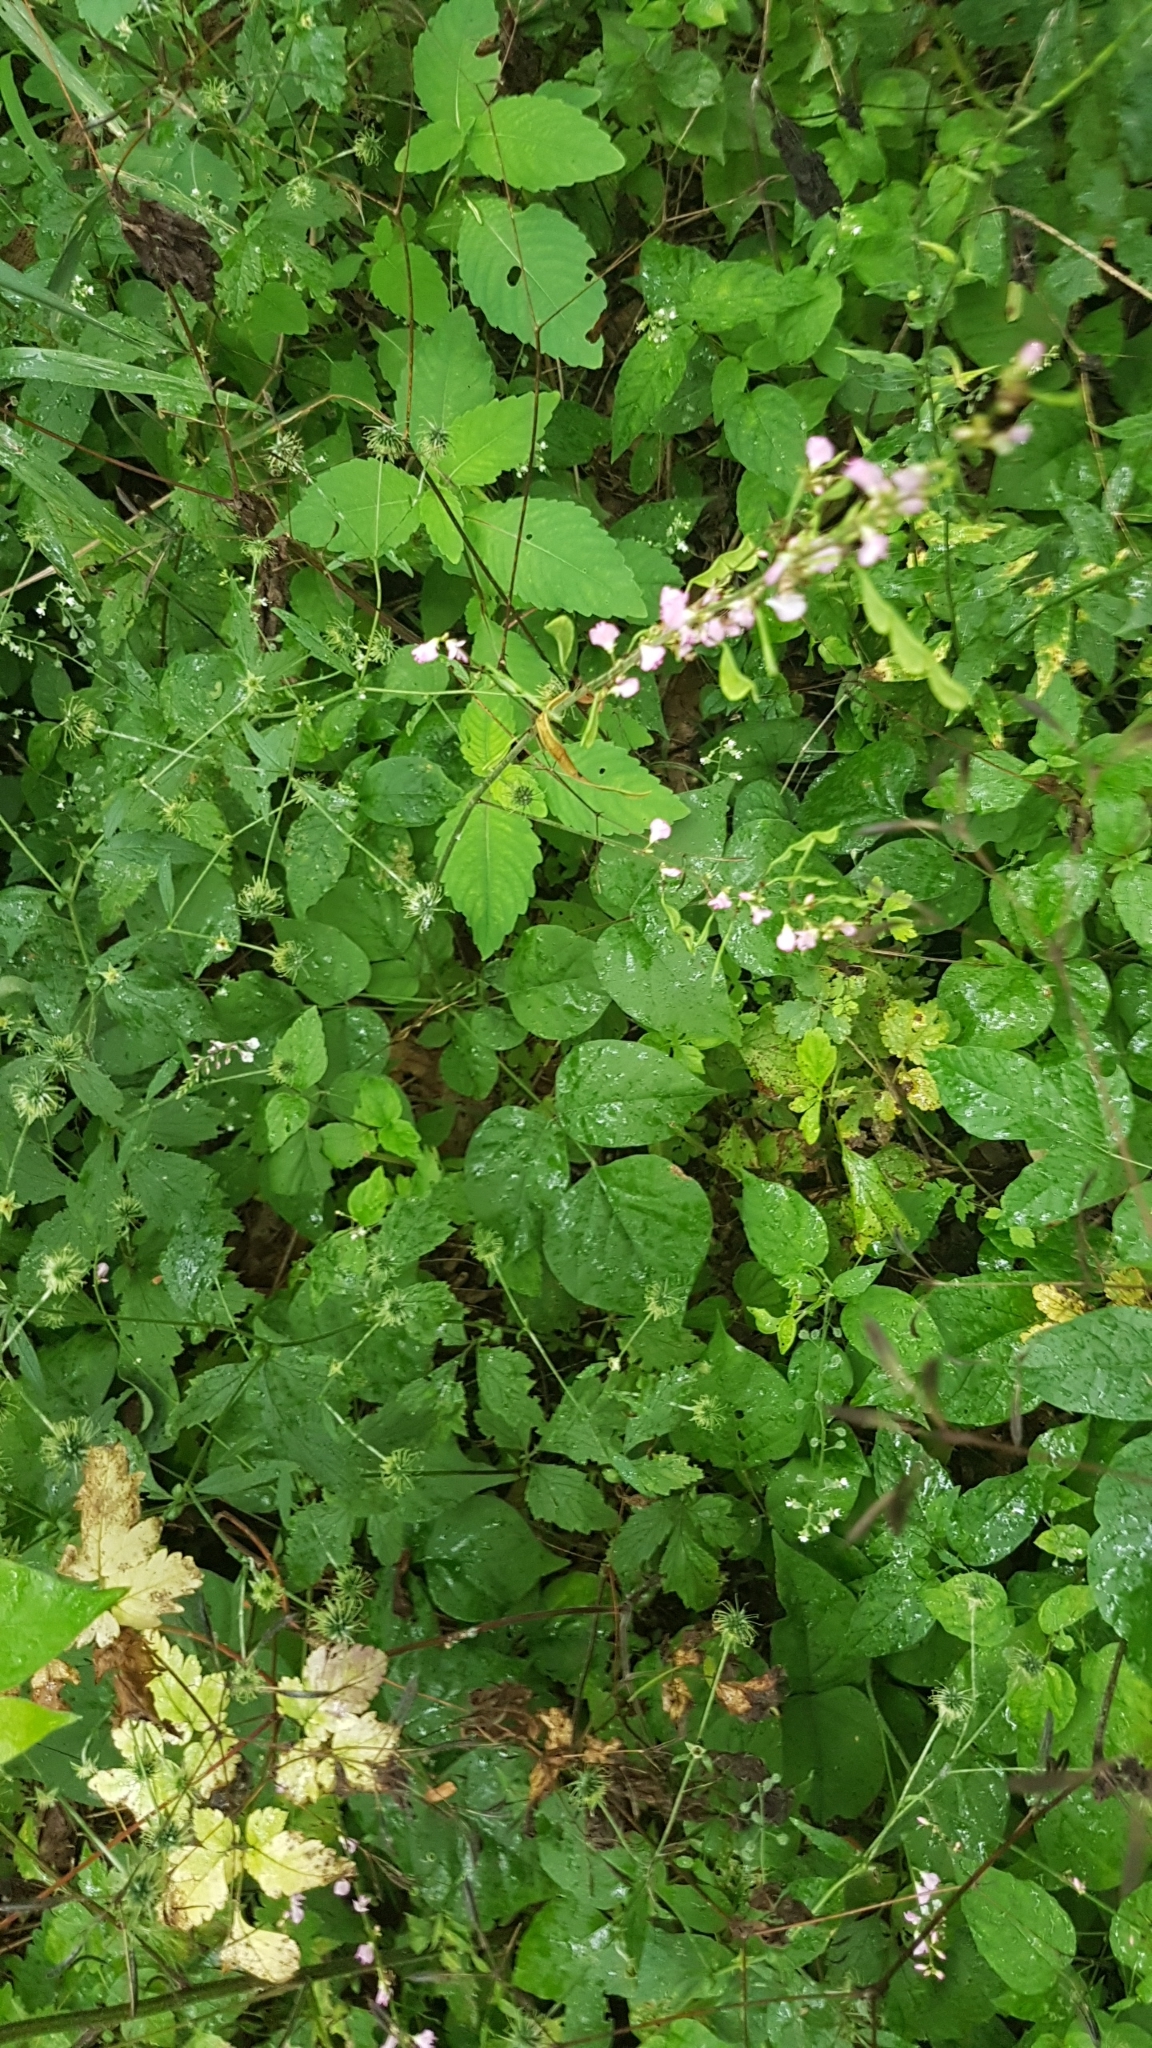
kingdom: Plantae
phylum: Tracheophyta
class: Magnoliopsida
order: Fabales
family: Fabaceae
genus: Hylodesmum
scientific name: Hylodesmum glutinosum
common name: Clustered-leaved tick-trefoil
